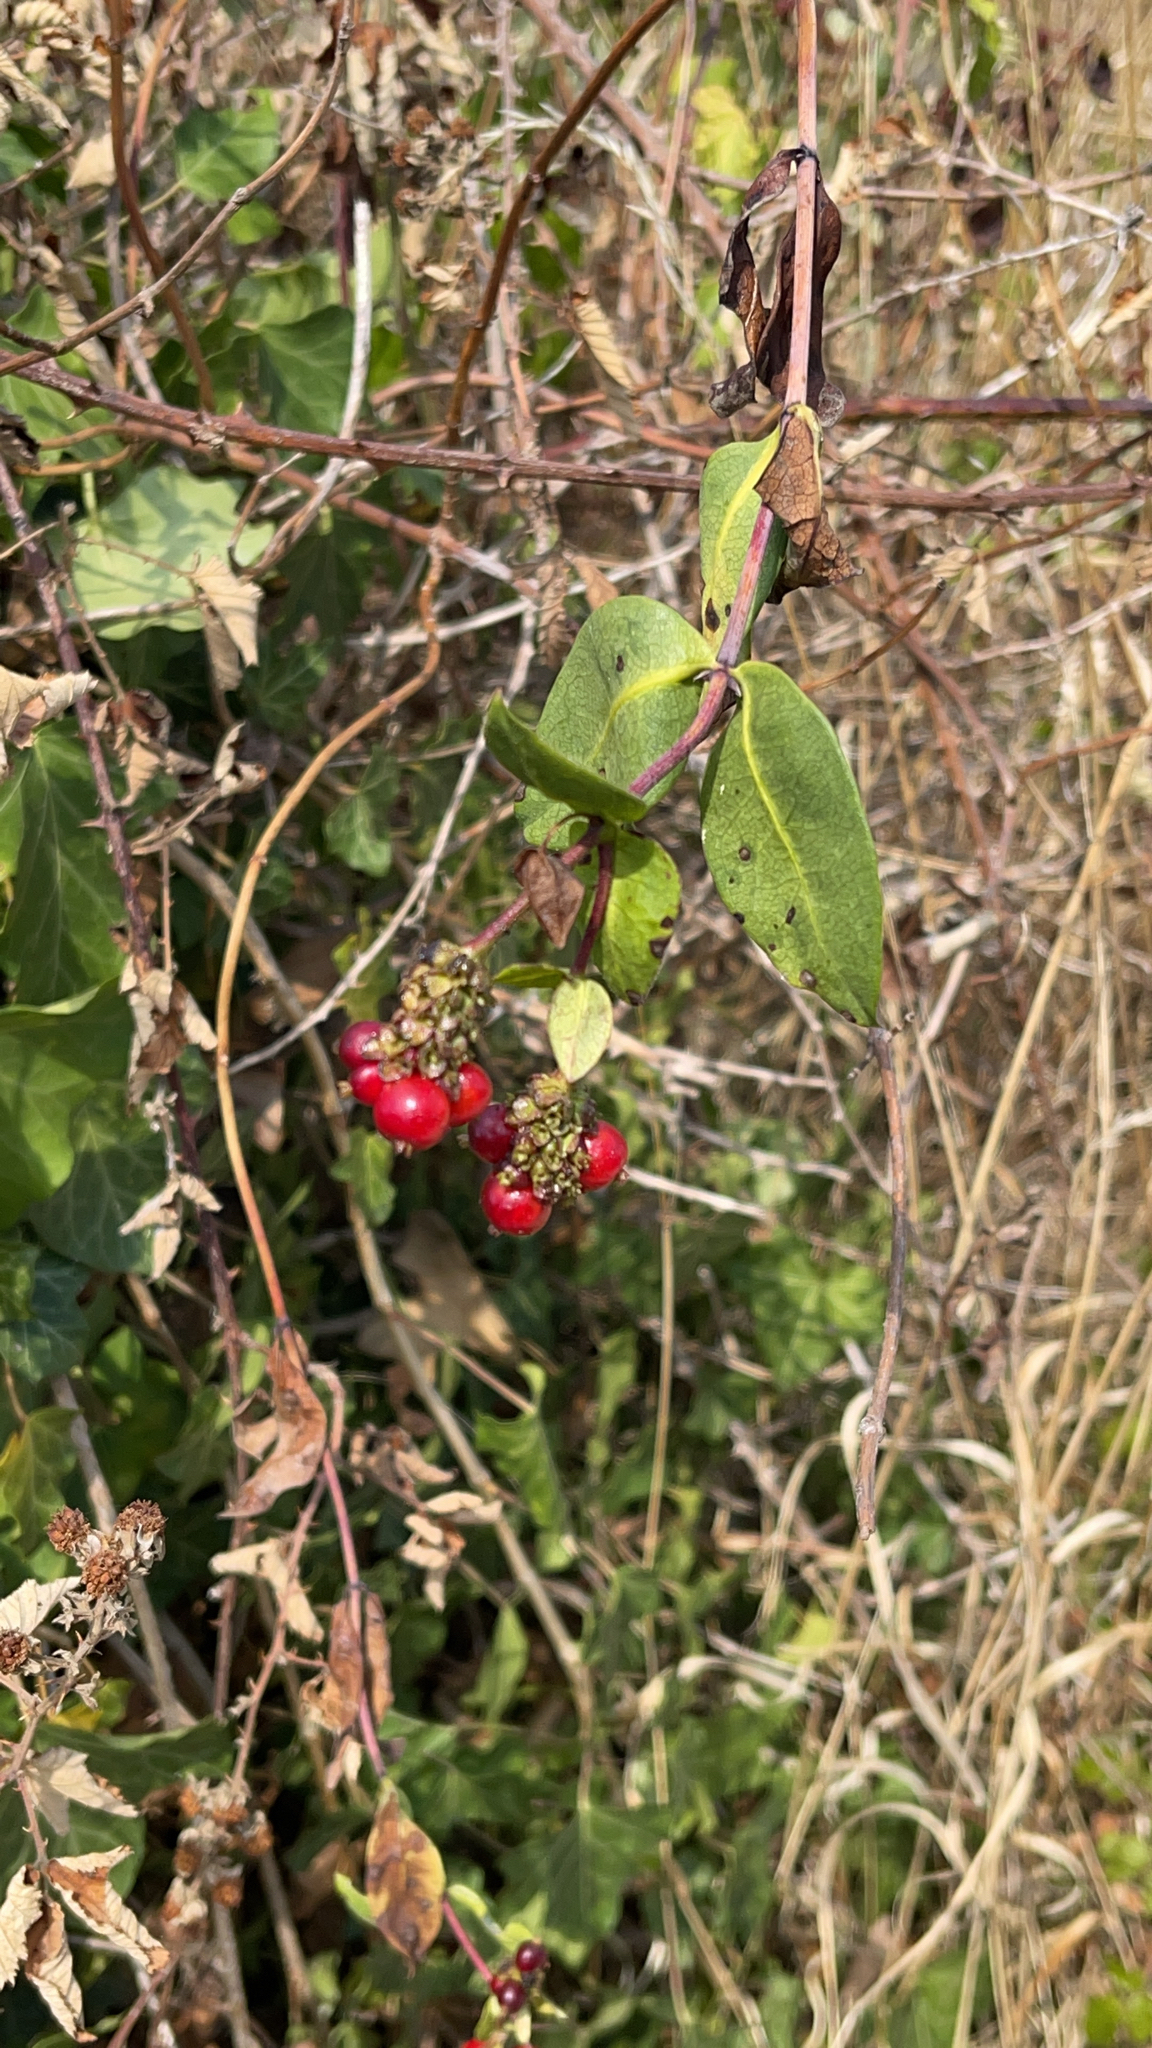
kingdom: Plantae
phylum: Tracheophyta
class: Magnoliopsida
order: Dipsacales
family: Caprifoliaceae
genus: Lonicera
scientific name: Lonicera periclymenum
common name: European honeysuckle
